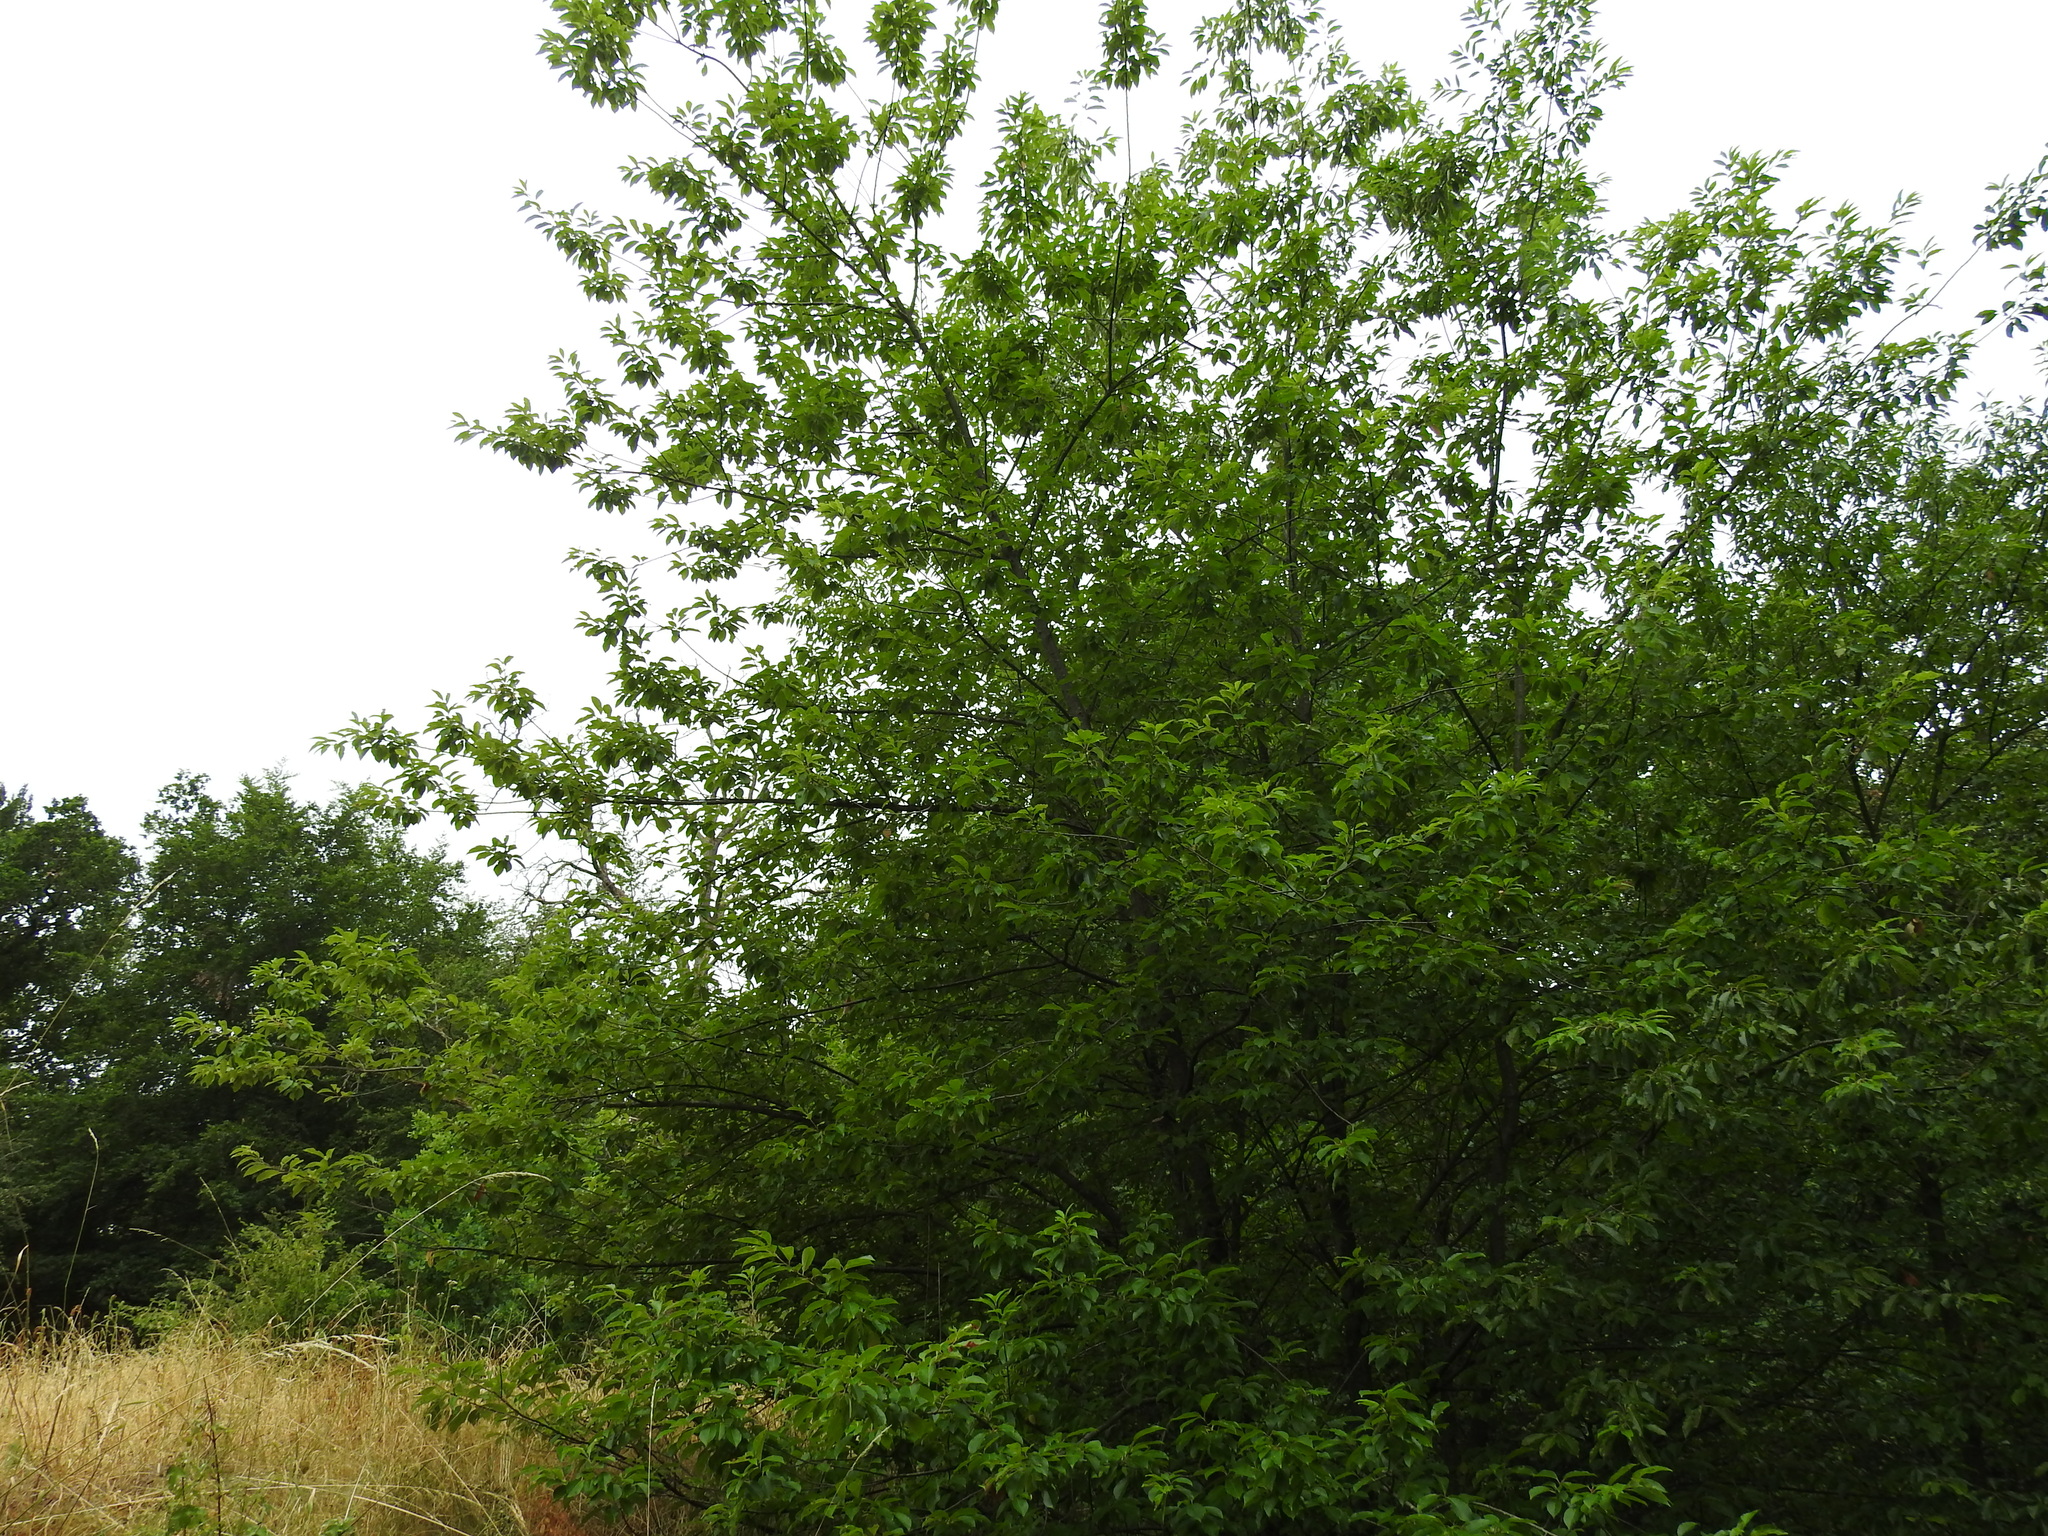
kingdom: Plantae
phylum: Tracheophyta
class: Magnoliopsida
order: Rosales
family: Rosaceae
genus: Prunus
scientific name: Prunus serotina
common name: Black cherry
